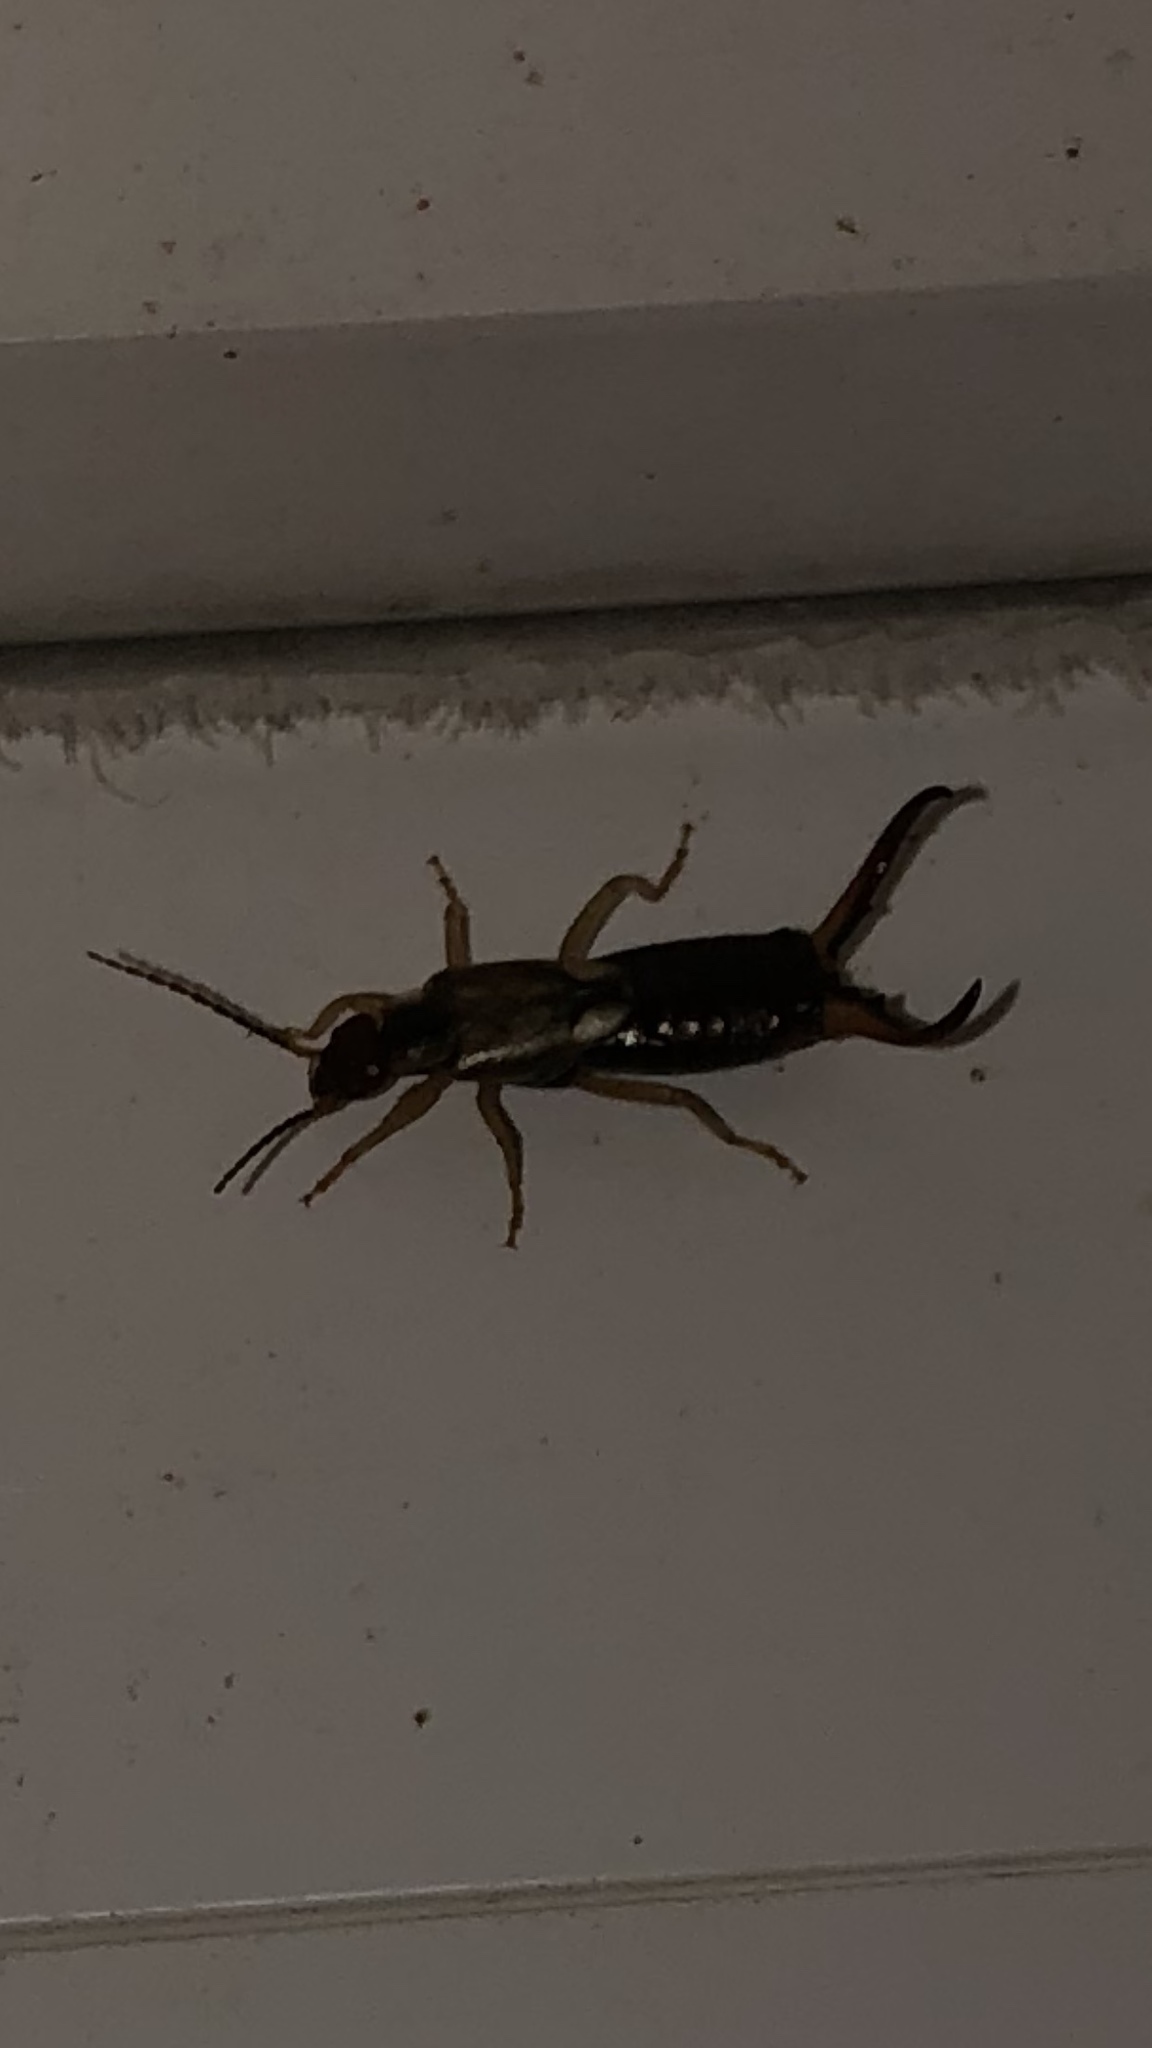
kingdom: Animalia
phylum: Arthropoda
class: Insecta
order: Dermaptera
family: Forficulidae
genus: Forficula
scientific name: Forficula
